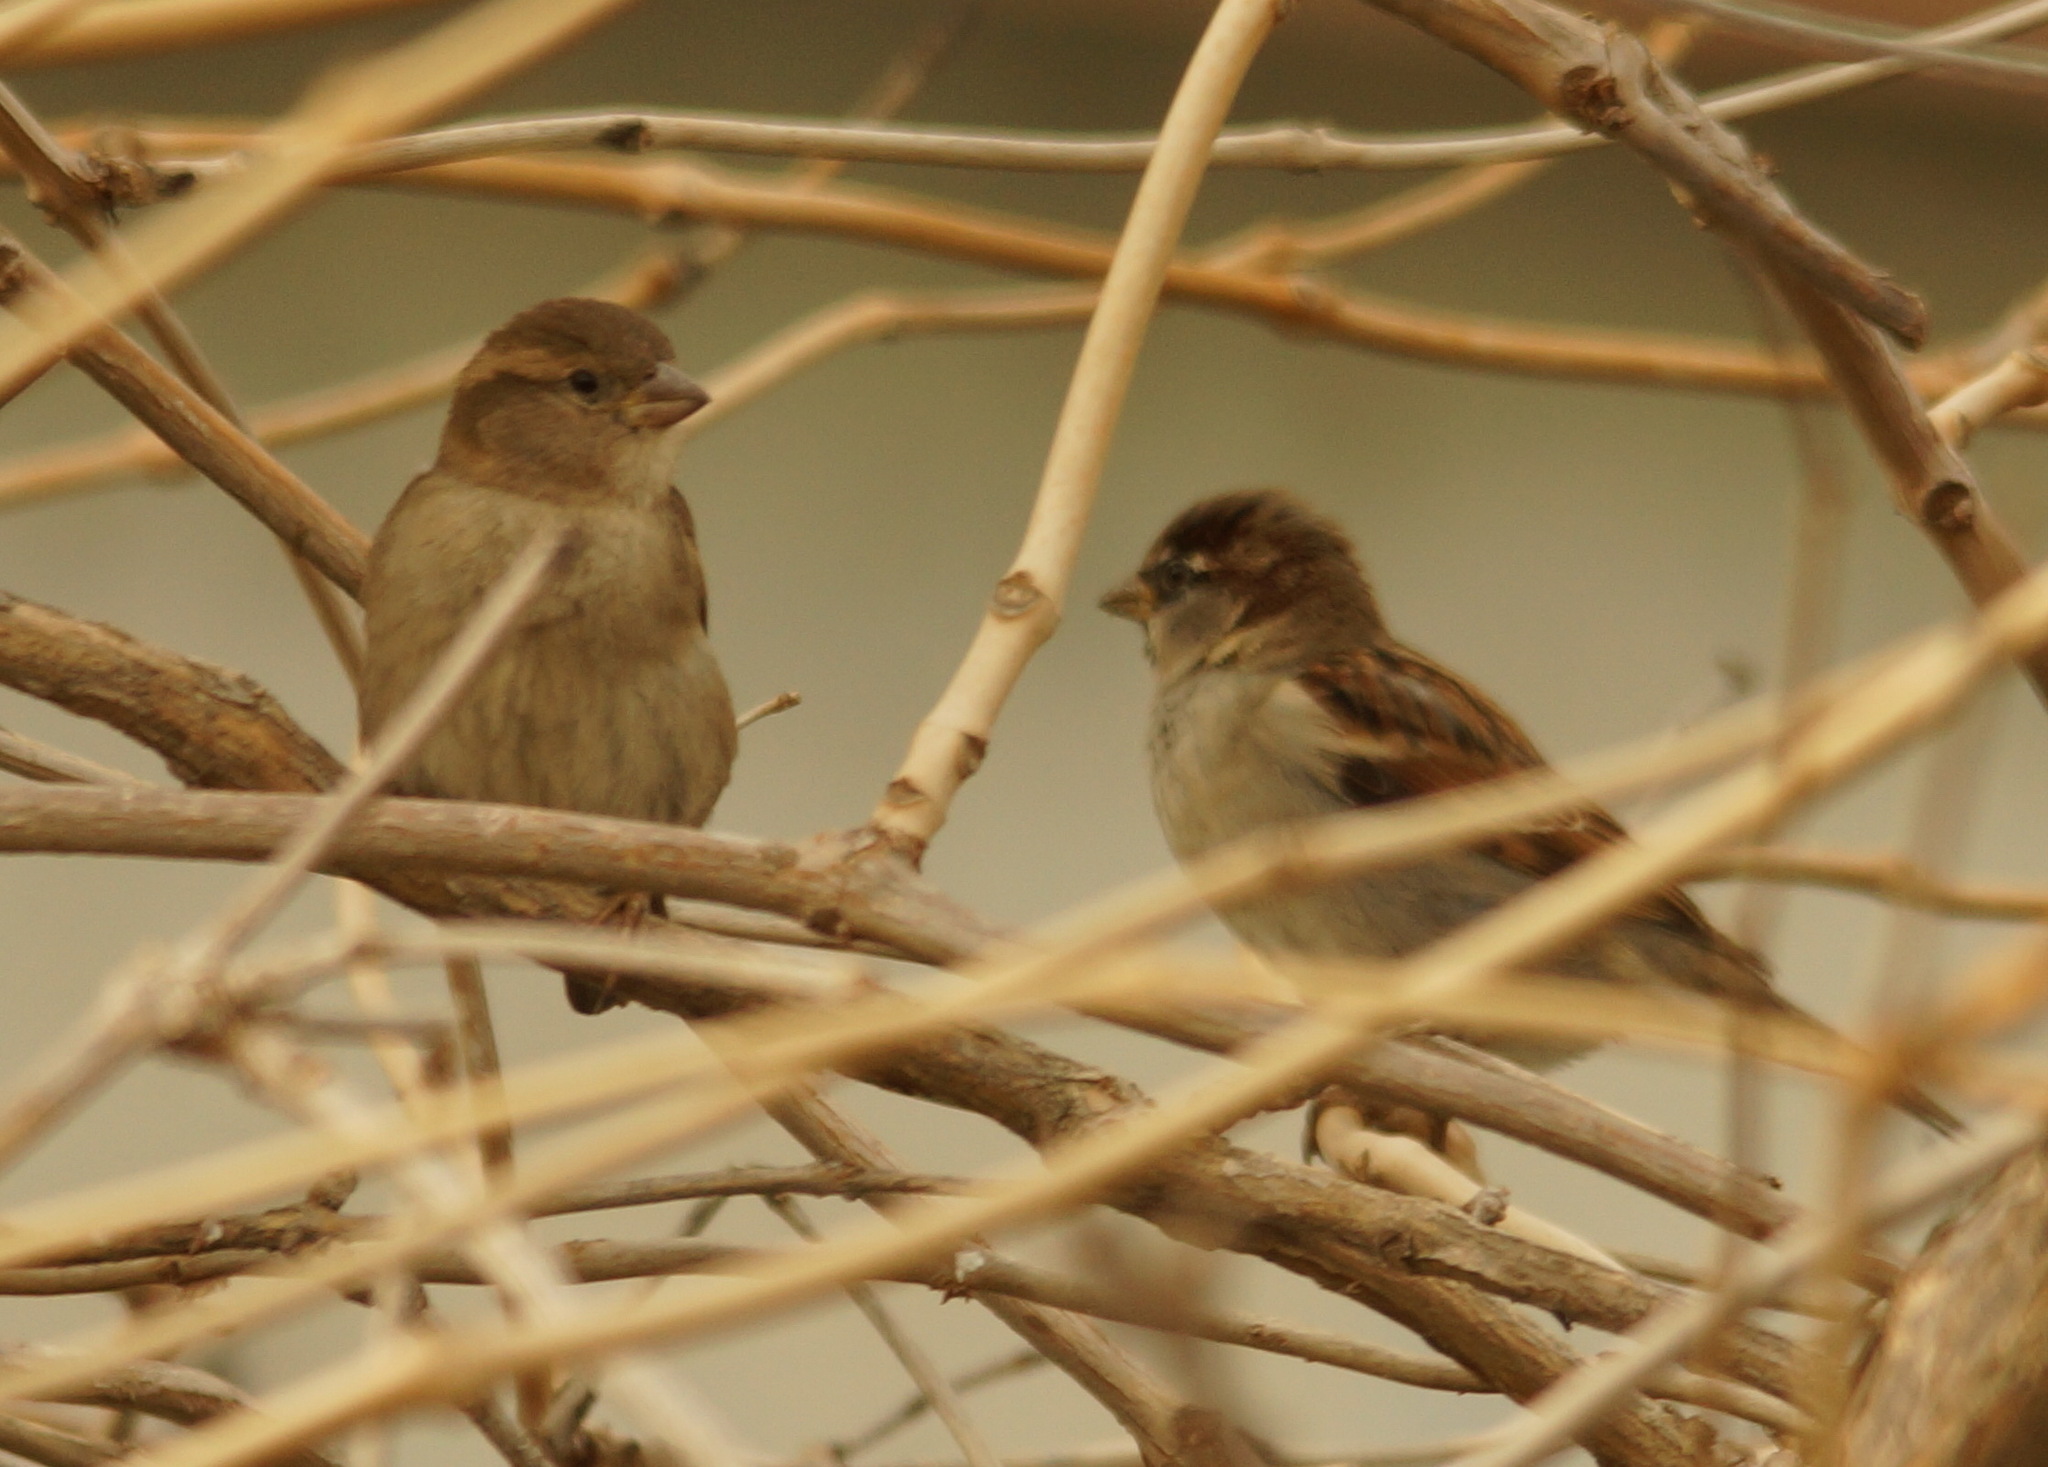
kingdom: Animalia
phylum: Chordata
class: Aves
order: Passeriformes
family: Passeridae
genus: Passer
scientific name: Passer domesticus
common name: House sparrow
